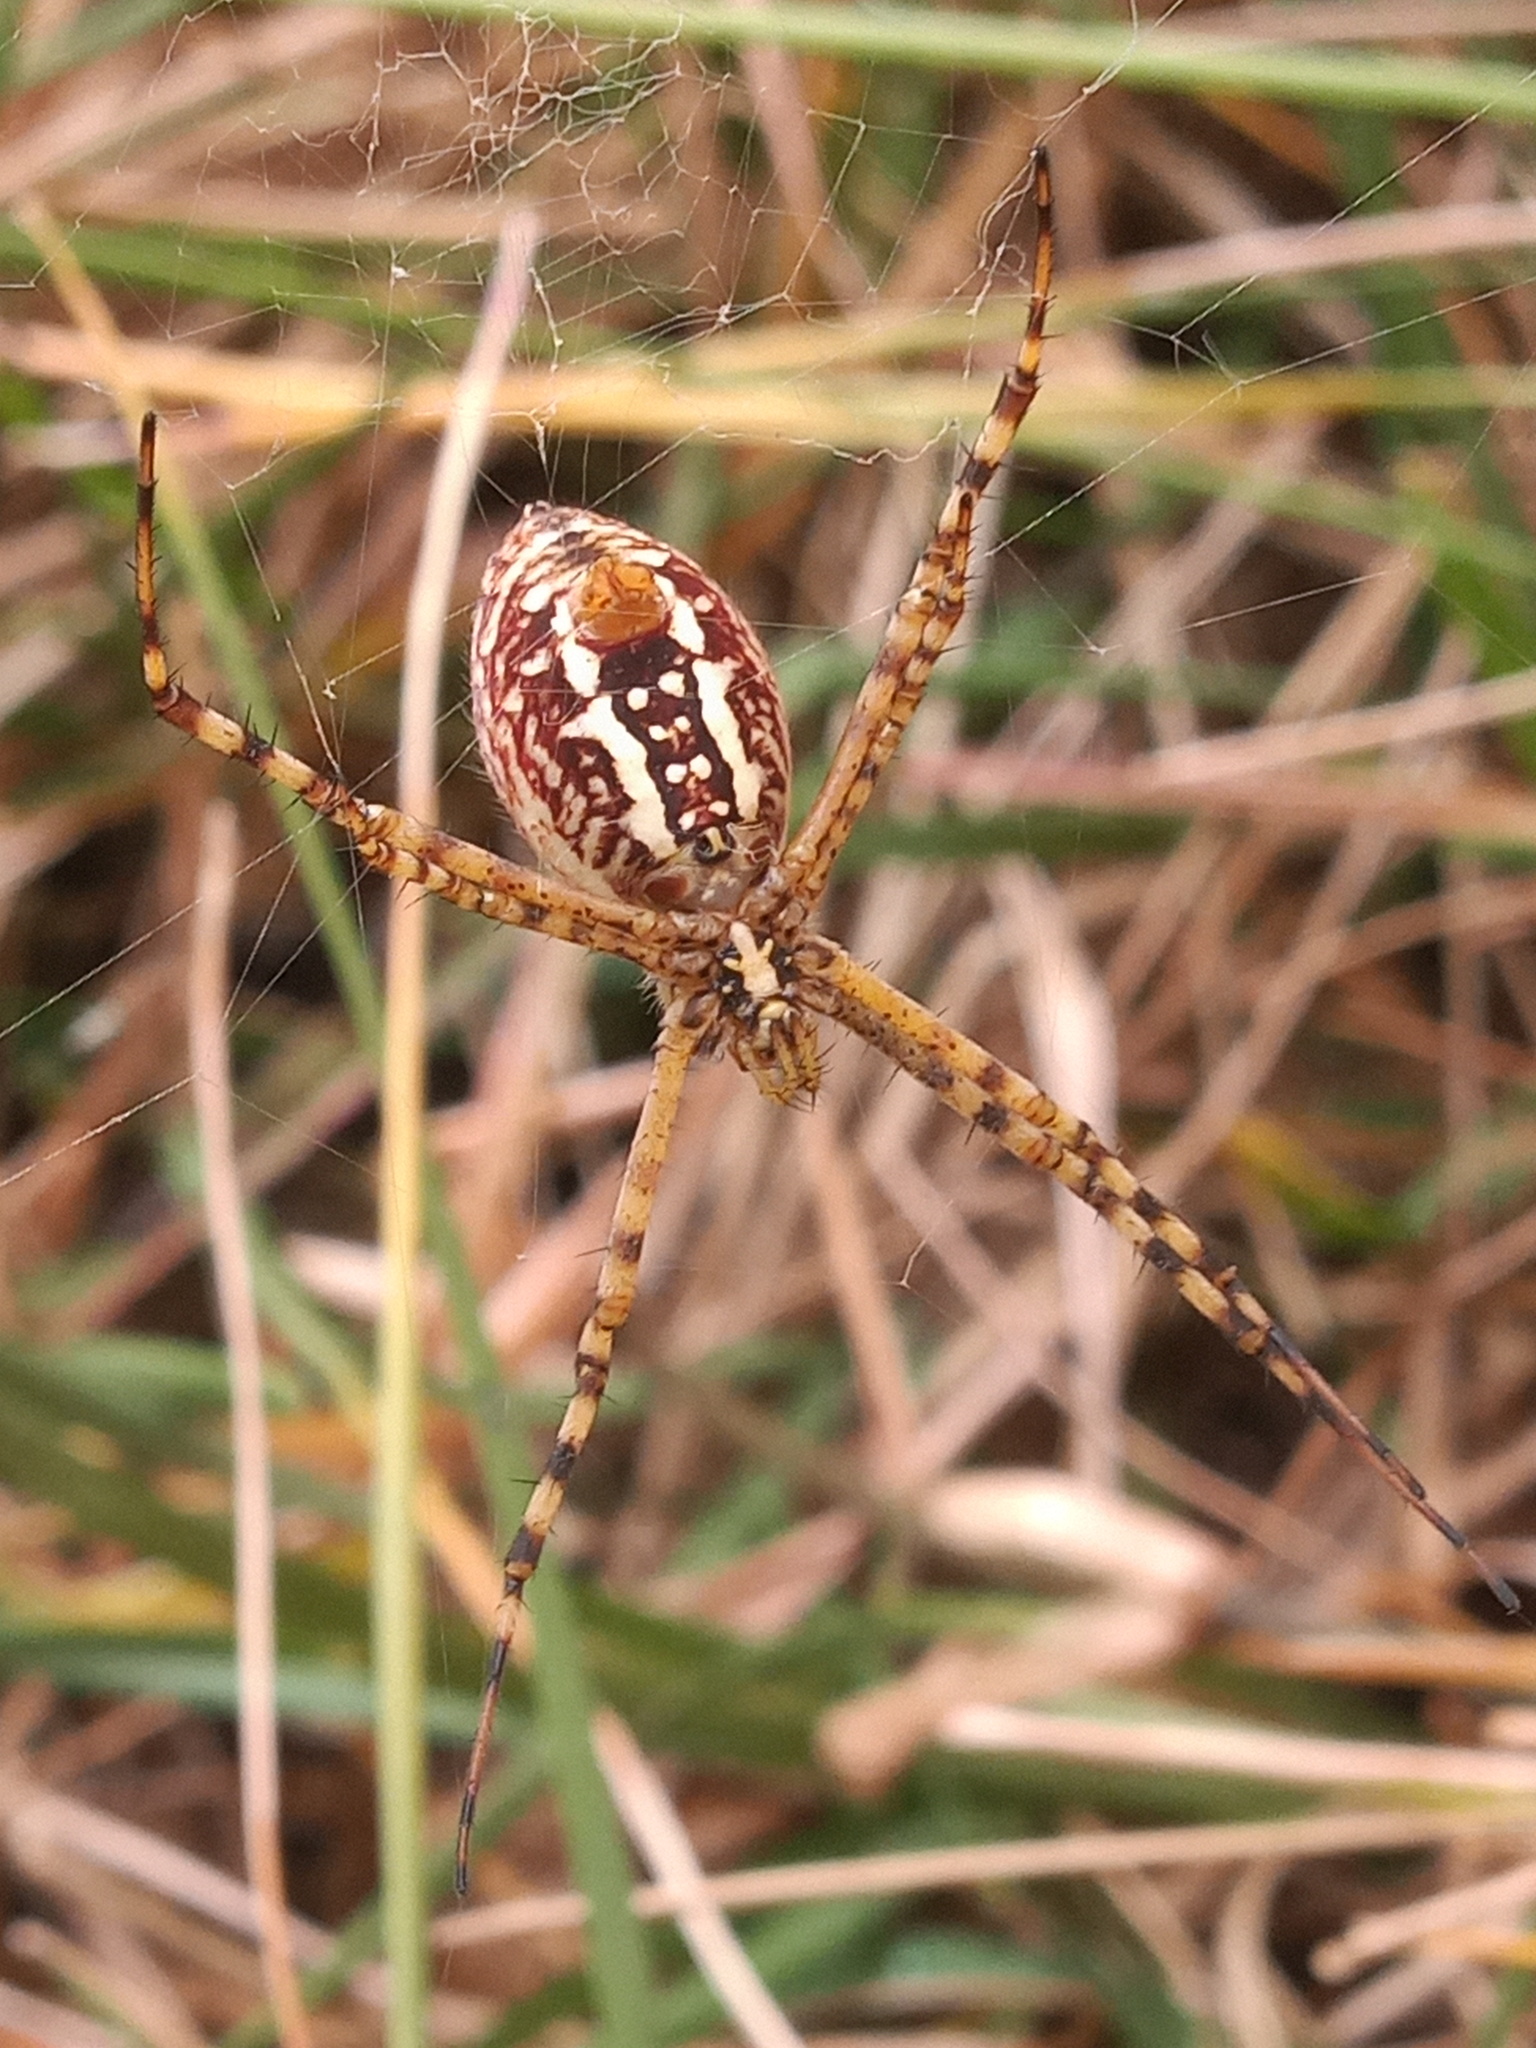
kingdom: Animalia
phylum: Arthropoda
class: Arachnida
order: Araneae
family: Araneidae
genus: Argiope
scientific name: Argiope trifasciata
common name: Banded garden spider
